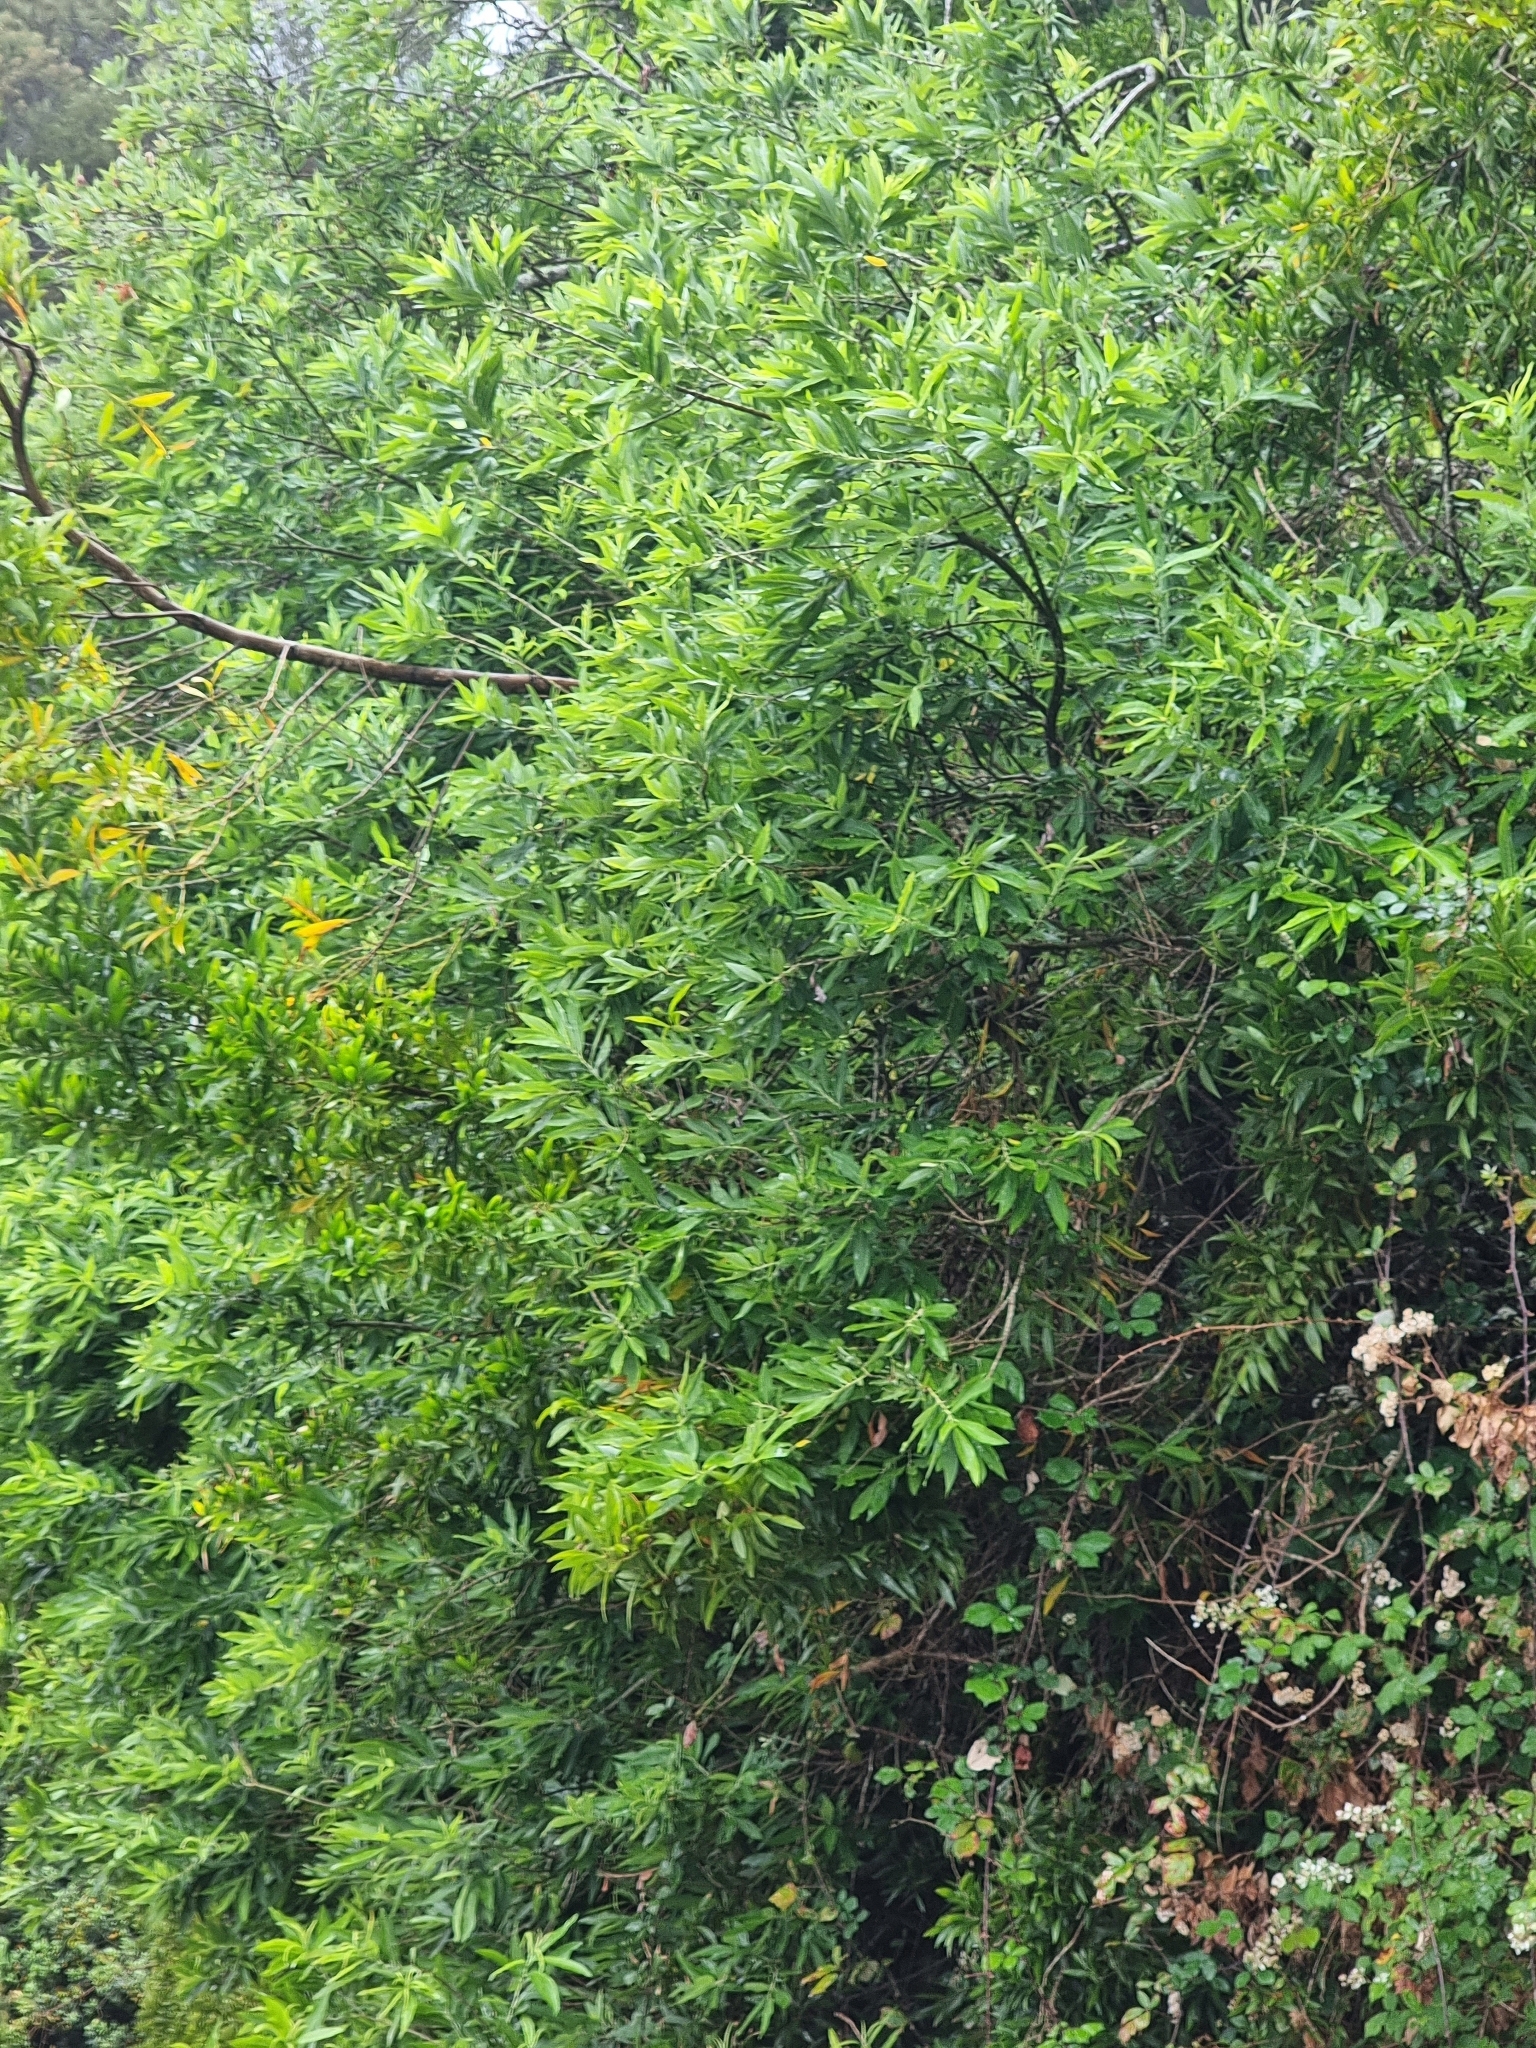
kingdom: Plantae
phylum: Tracheophyta
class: Magnoliopsida
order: Malpighiales
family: Salicaceae
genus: Salix
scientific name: Salix canariensis
